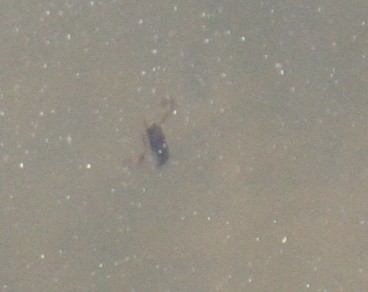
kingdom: Animalia
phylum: Arthropoda
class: Insecta
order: Hemiptera
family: Notonectidae
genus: Notonecta
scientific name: Notonecta
